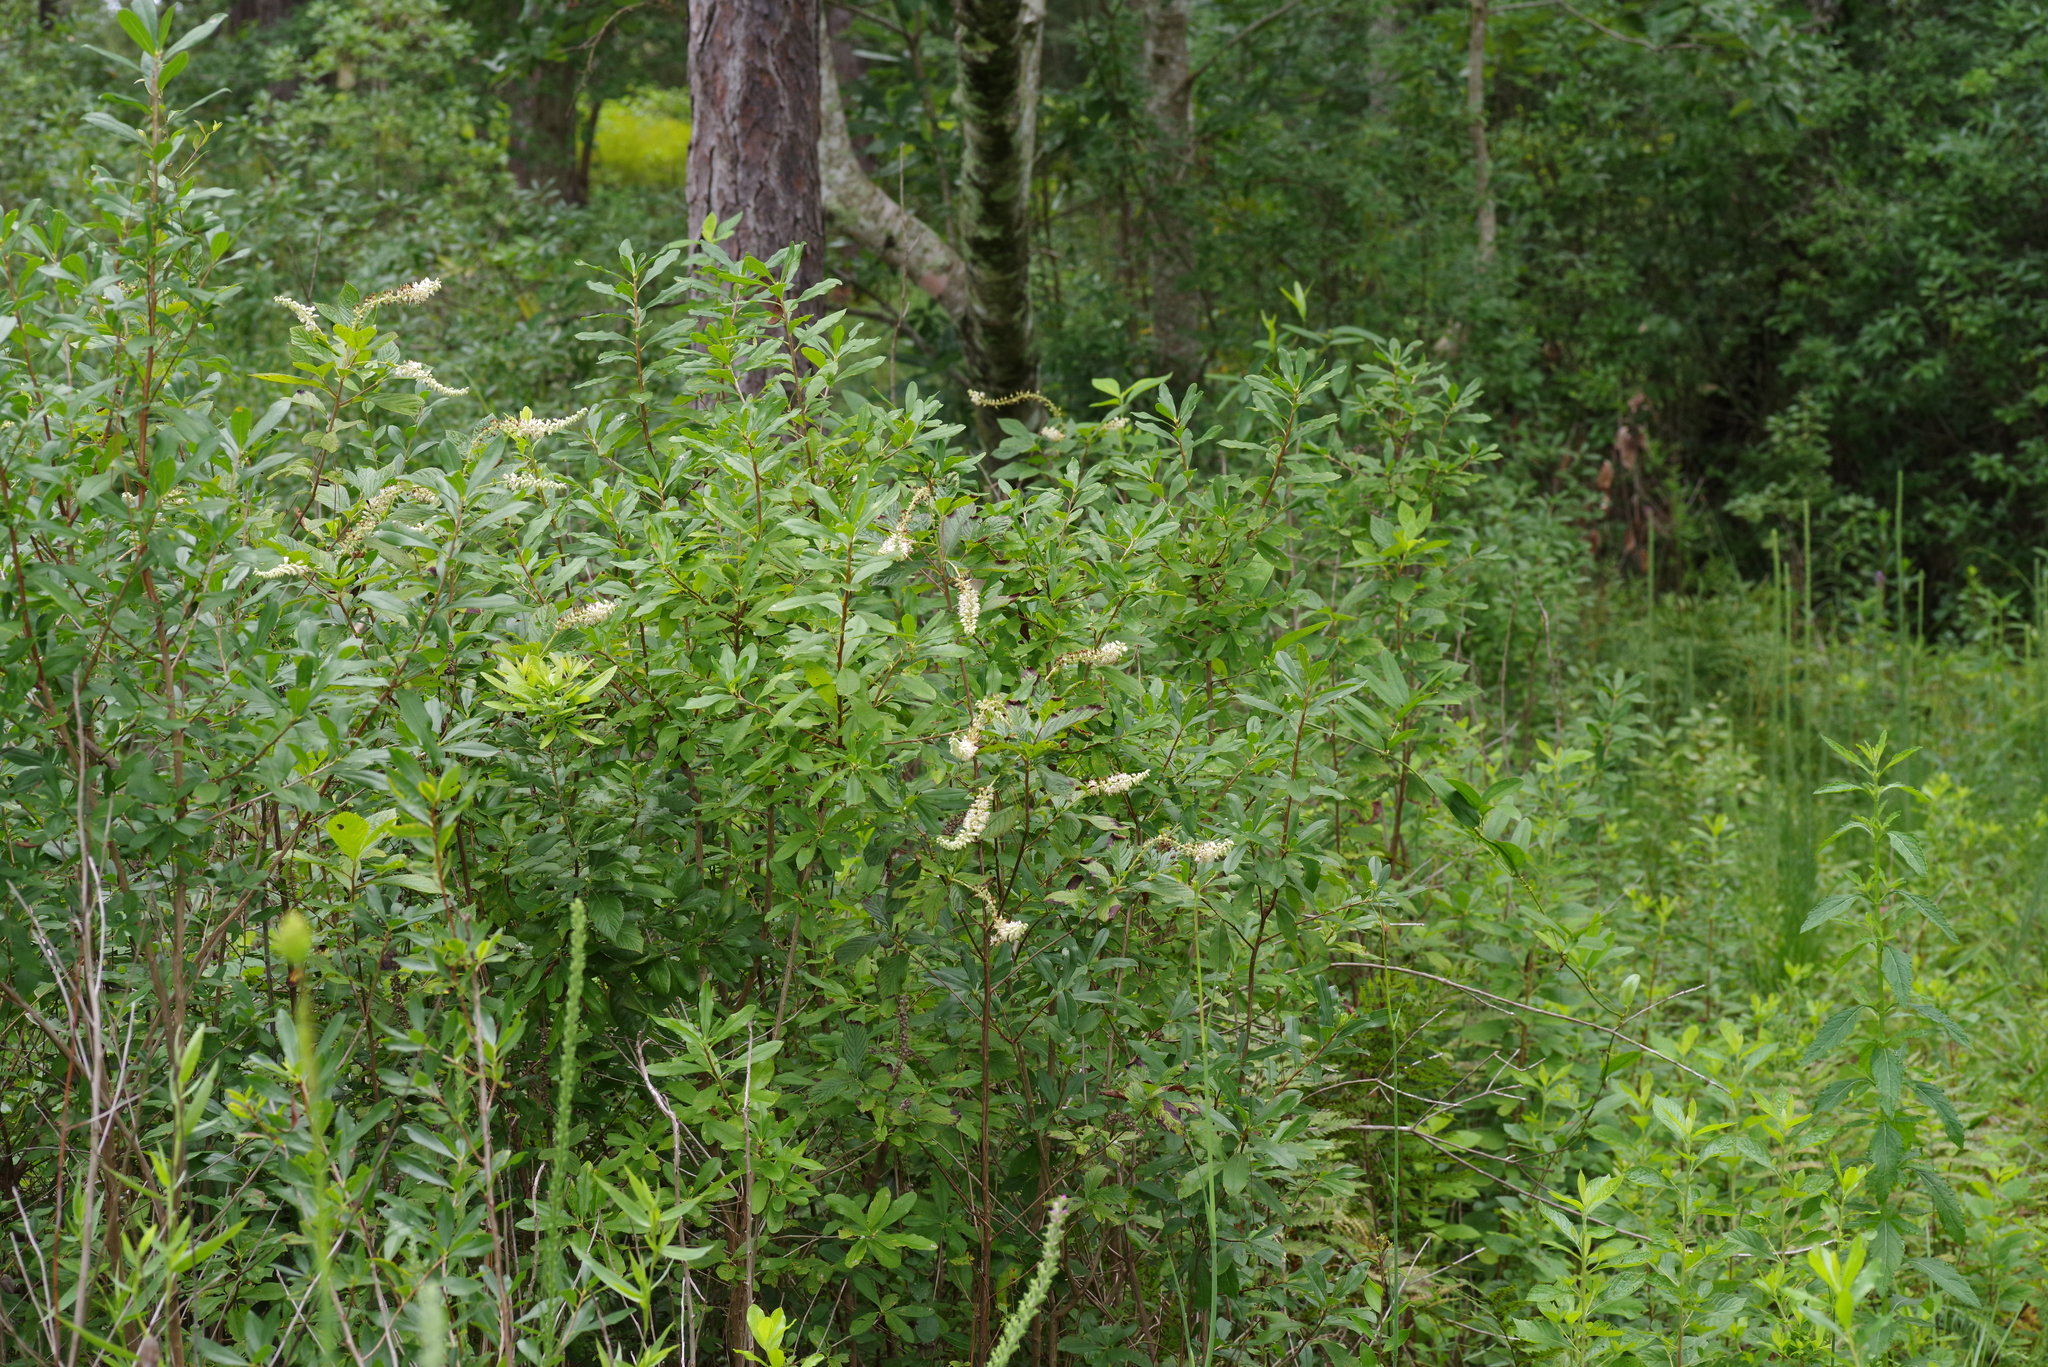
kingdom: Plantae
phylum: Tracheophyta
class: Magnoliopsida
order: Ericales
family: Clethraceae
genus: Clethra
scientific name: Clethra alnifolia
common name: Sweet pepperbush
